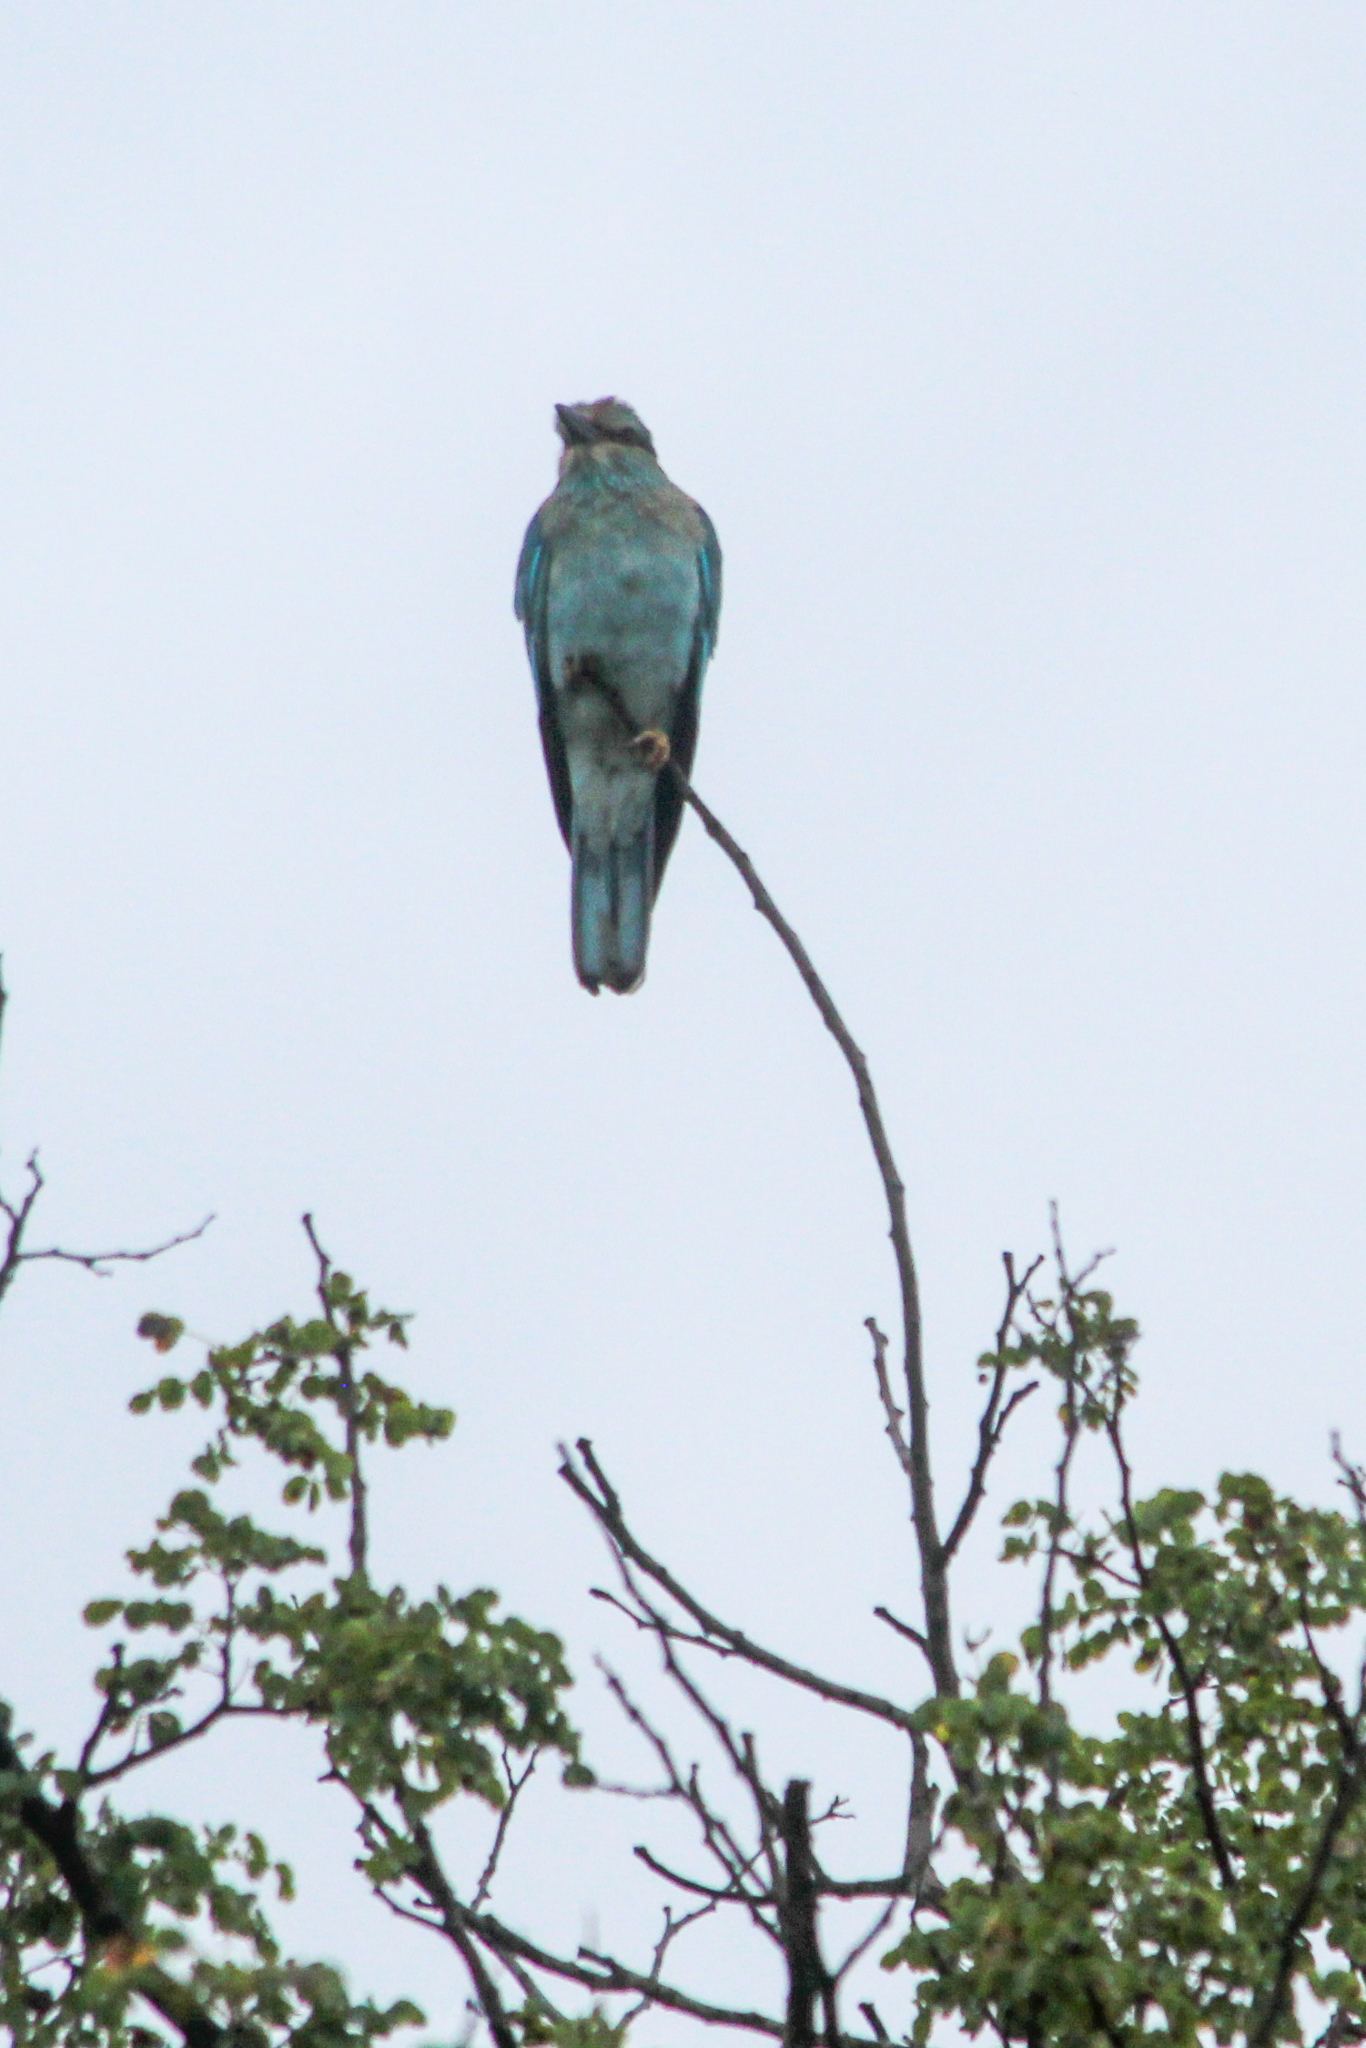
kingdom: Animalia
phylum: Chordata
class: Aves
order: Coraciiformes
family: Coraciidae
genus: Coracias
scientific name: Coracias garrulus
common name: European roller
